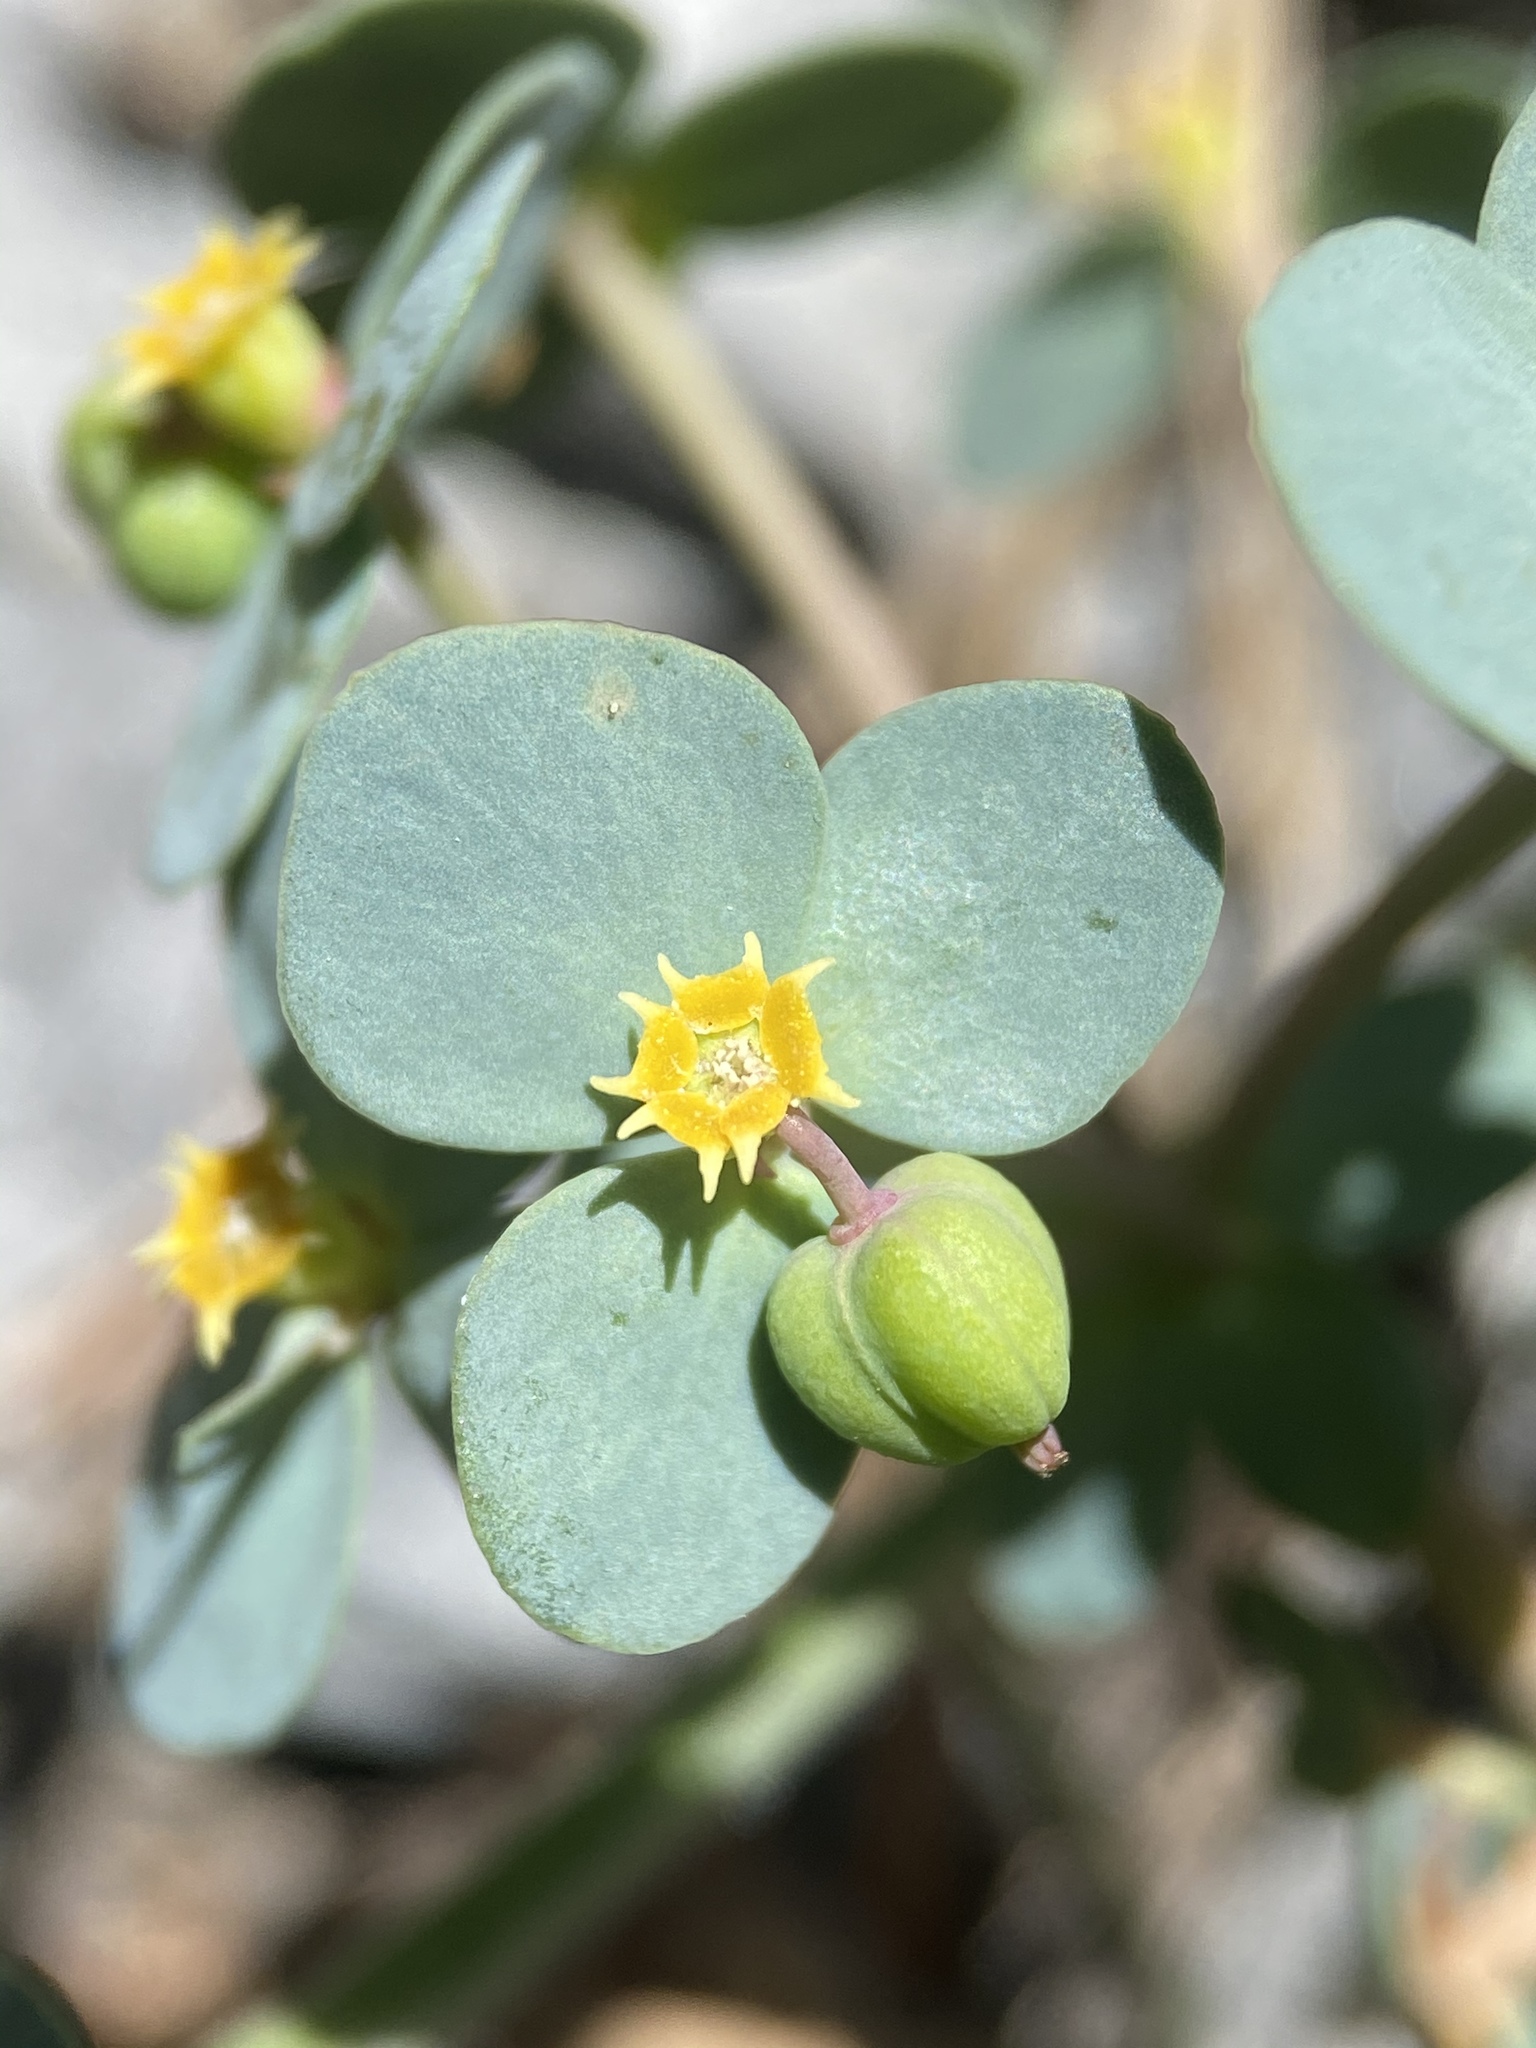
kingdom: Plantae
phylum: Tracheophyta
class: Magnoliopsida
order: Malpighiales
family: Euphorbiaceae
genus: Euphorbia
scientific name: Euphorbia brachycera
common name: Shorthorn spurge
